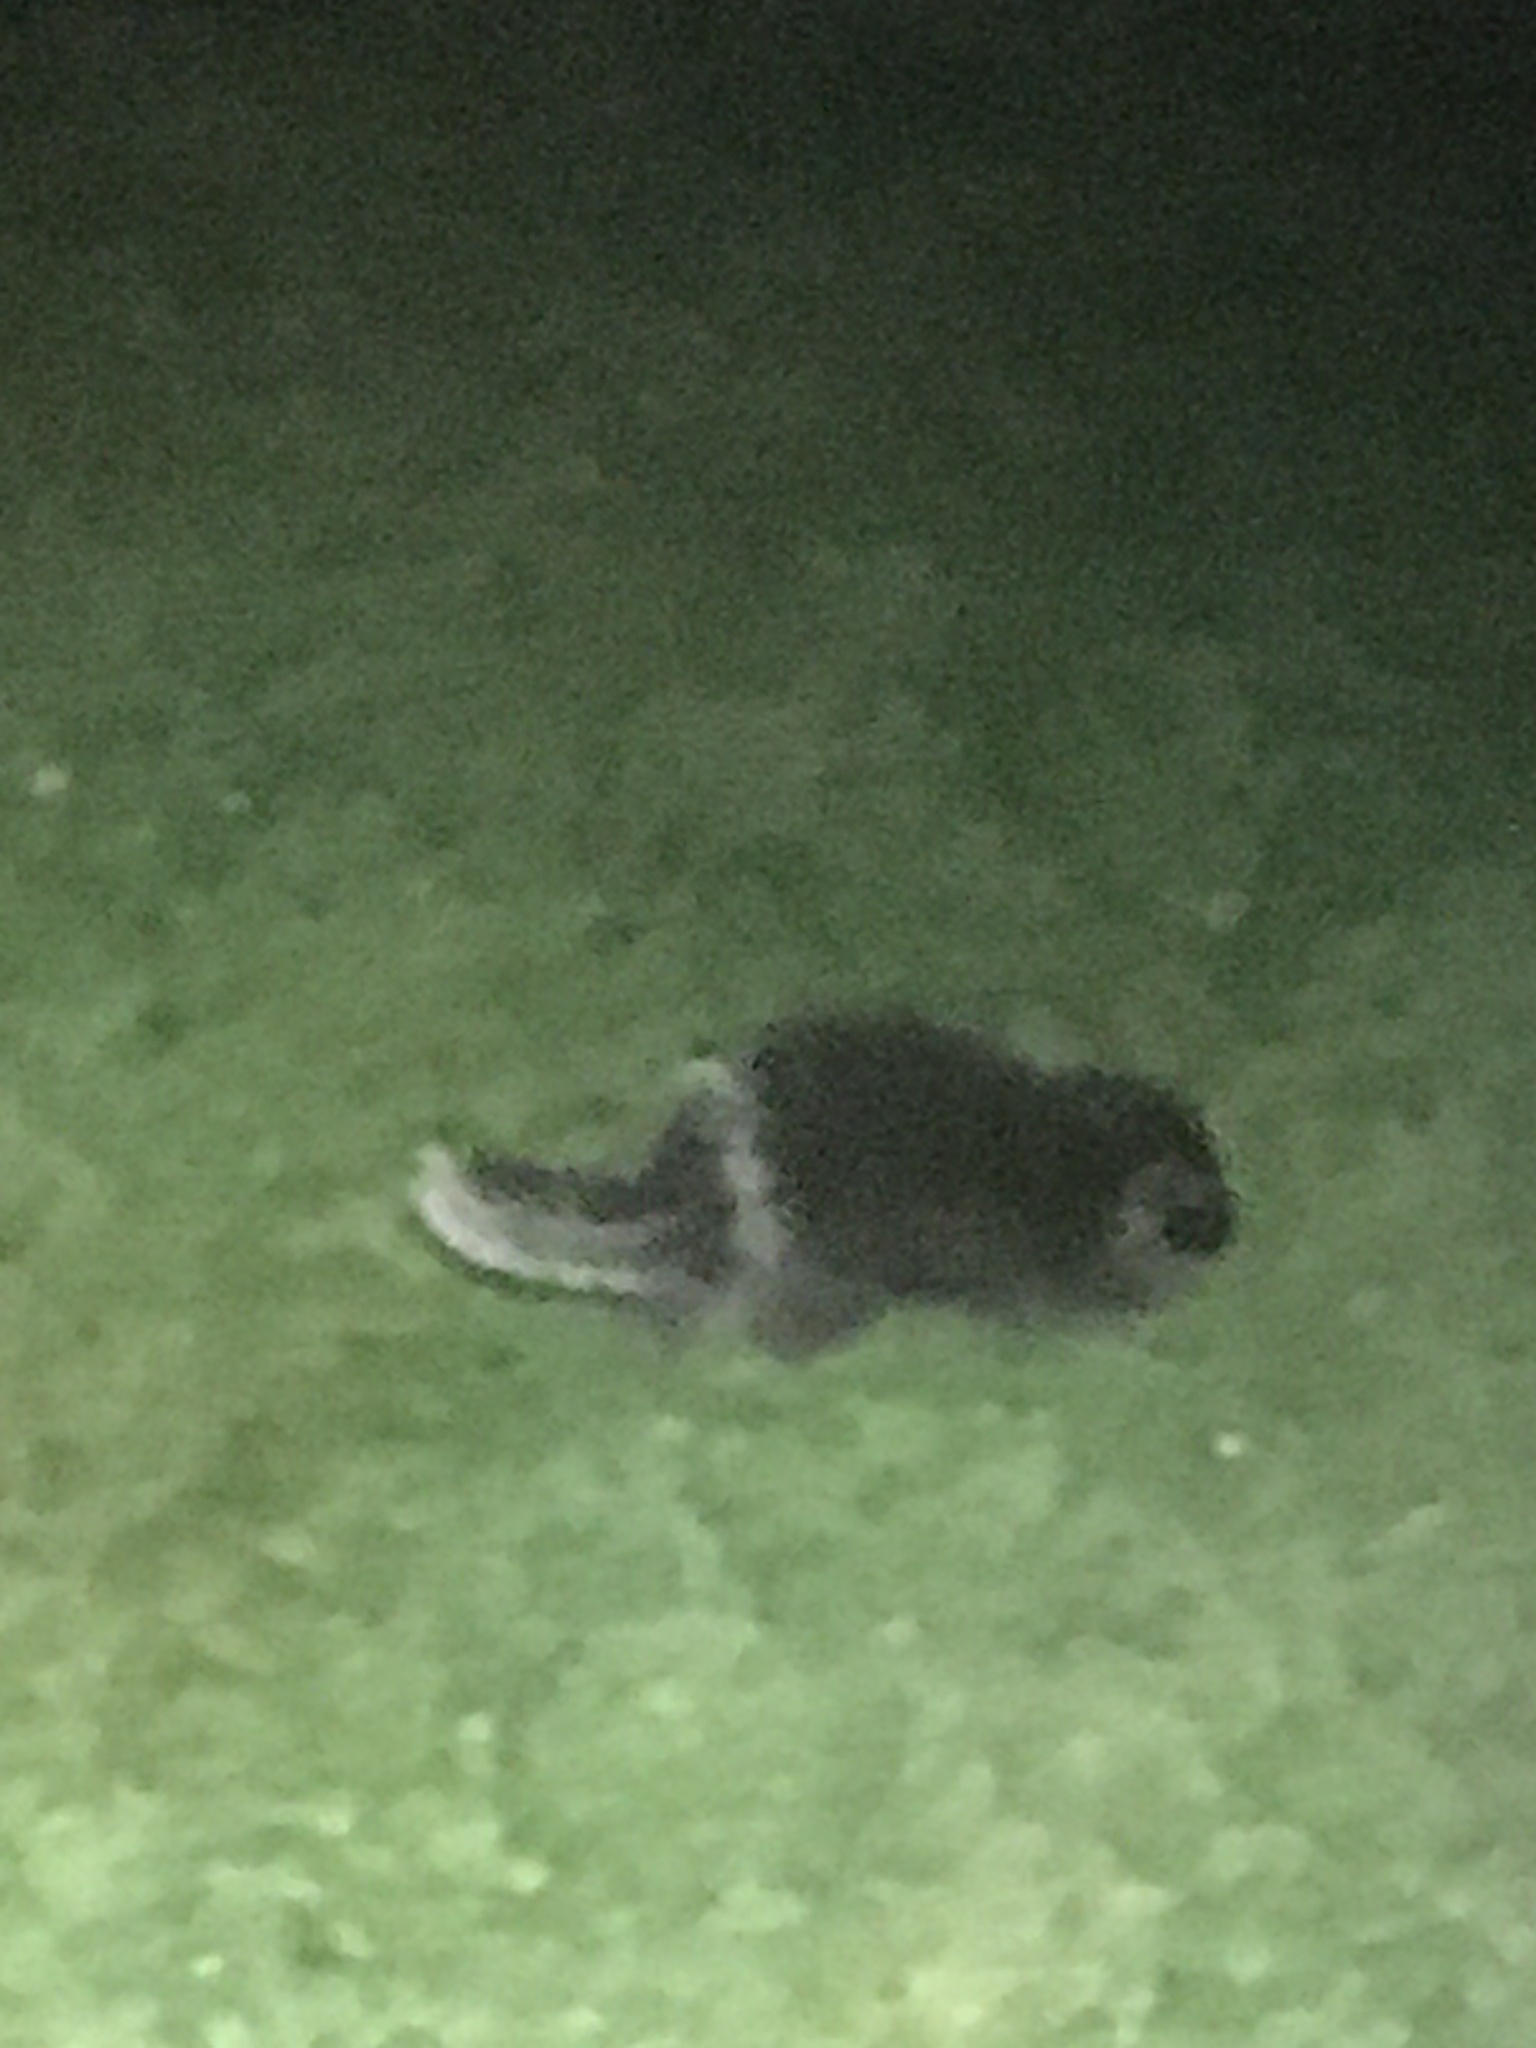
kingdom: Animalia
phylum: Chordata
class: Mammalia
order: Rodentia
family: Erethizontidae
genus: Erethizon
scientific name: Erethizon dorsatus
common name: North american porcupine
